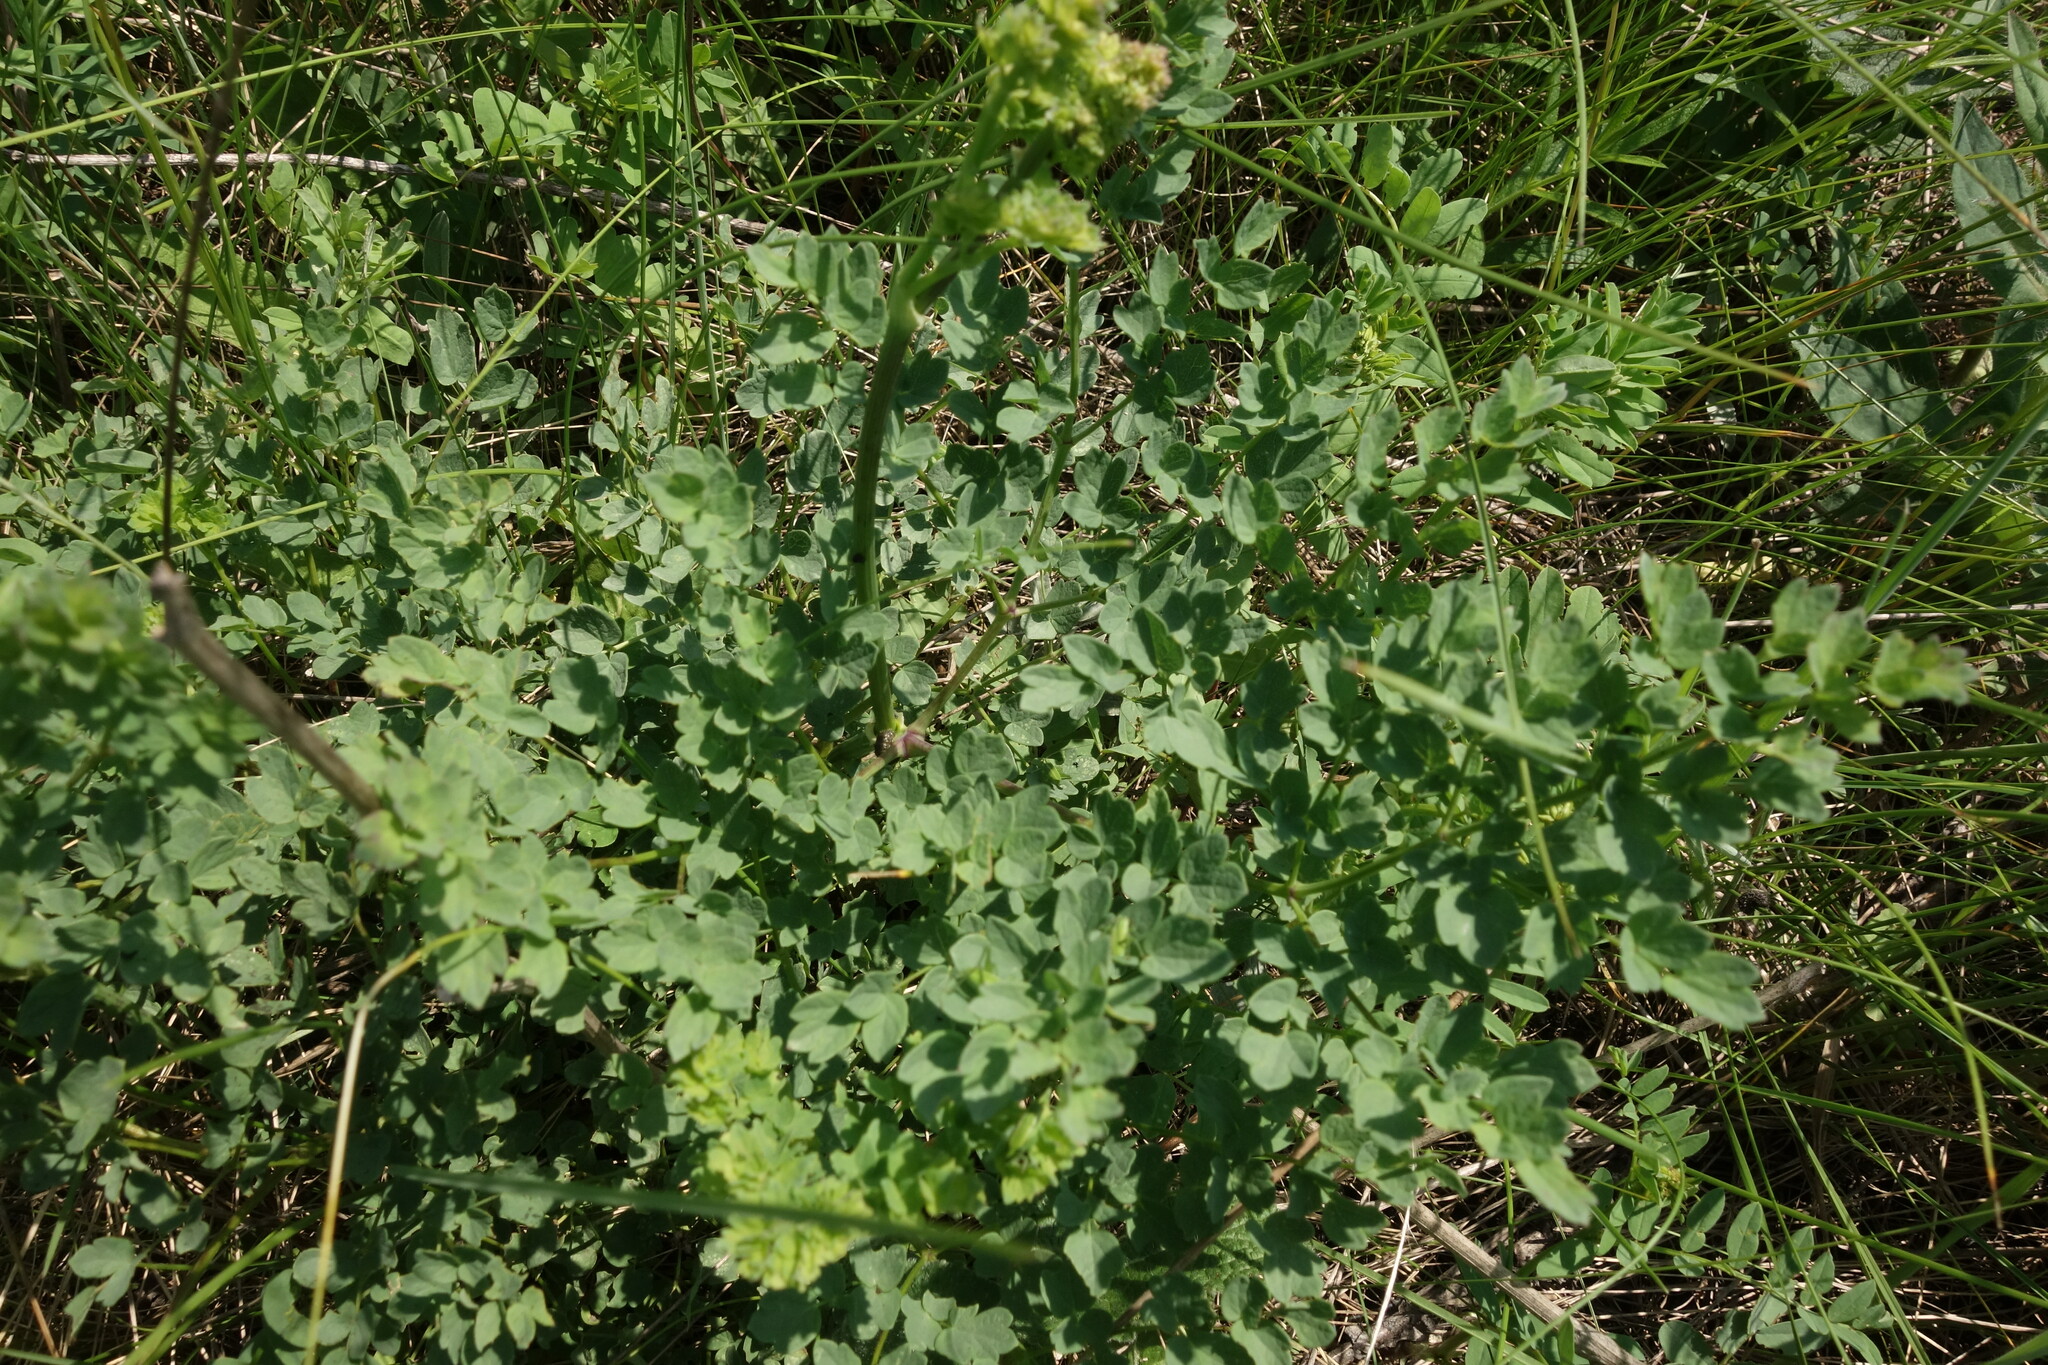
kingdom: Plantae
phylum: Tracheophyta
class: Magnoliopsida
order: Ranunculales
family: Ranunculaceae
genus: Thalictrum
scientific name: Thalictrum minus
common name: Lesser meadow-rue
